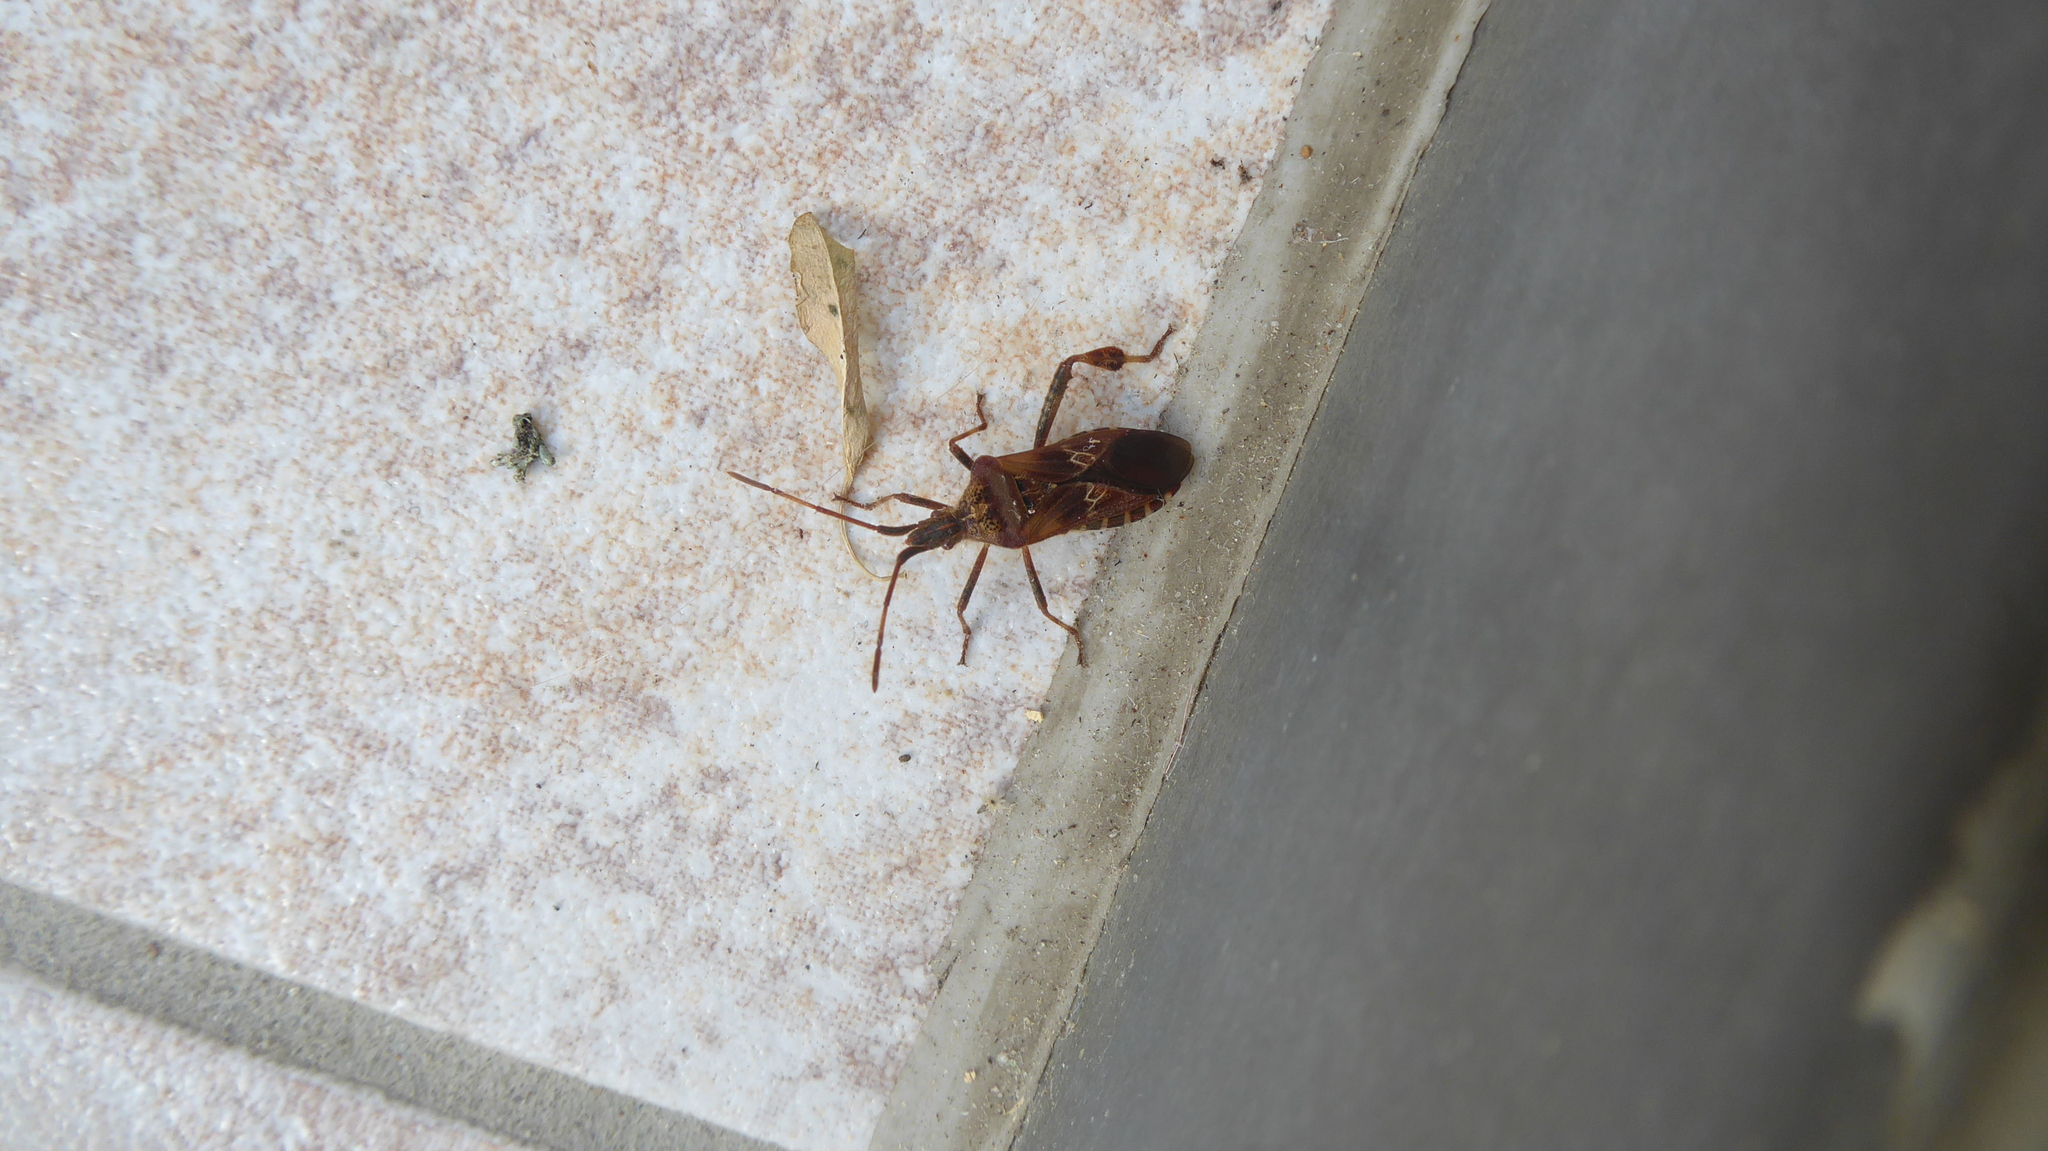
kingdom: Animalia
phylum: Arthropoda
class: Insecta
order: Hemiptera
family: Coreidae
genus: Leptoglossus
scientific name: Leptoglossus occidentalis
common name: Western conifer-seed bug
